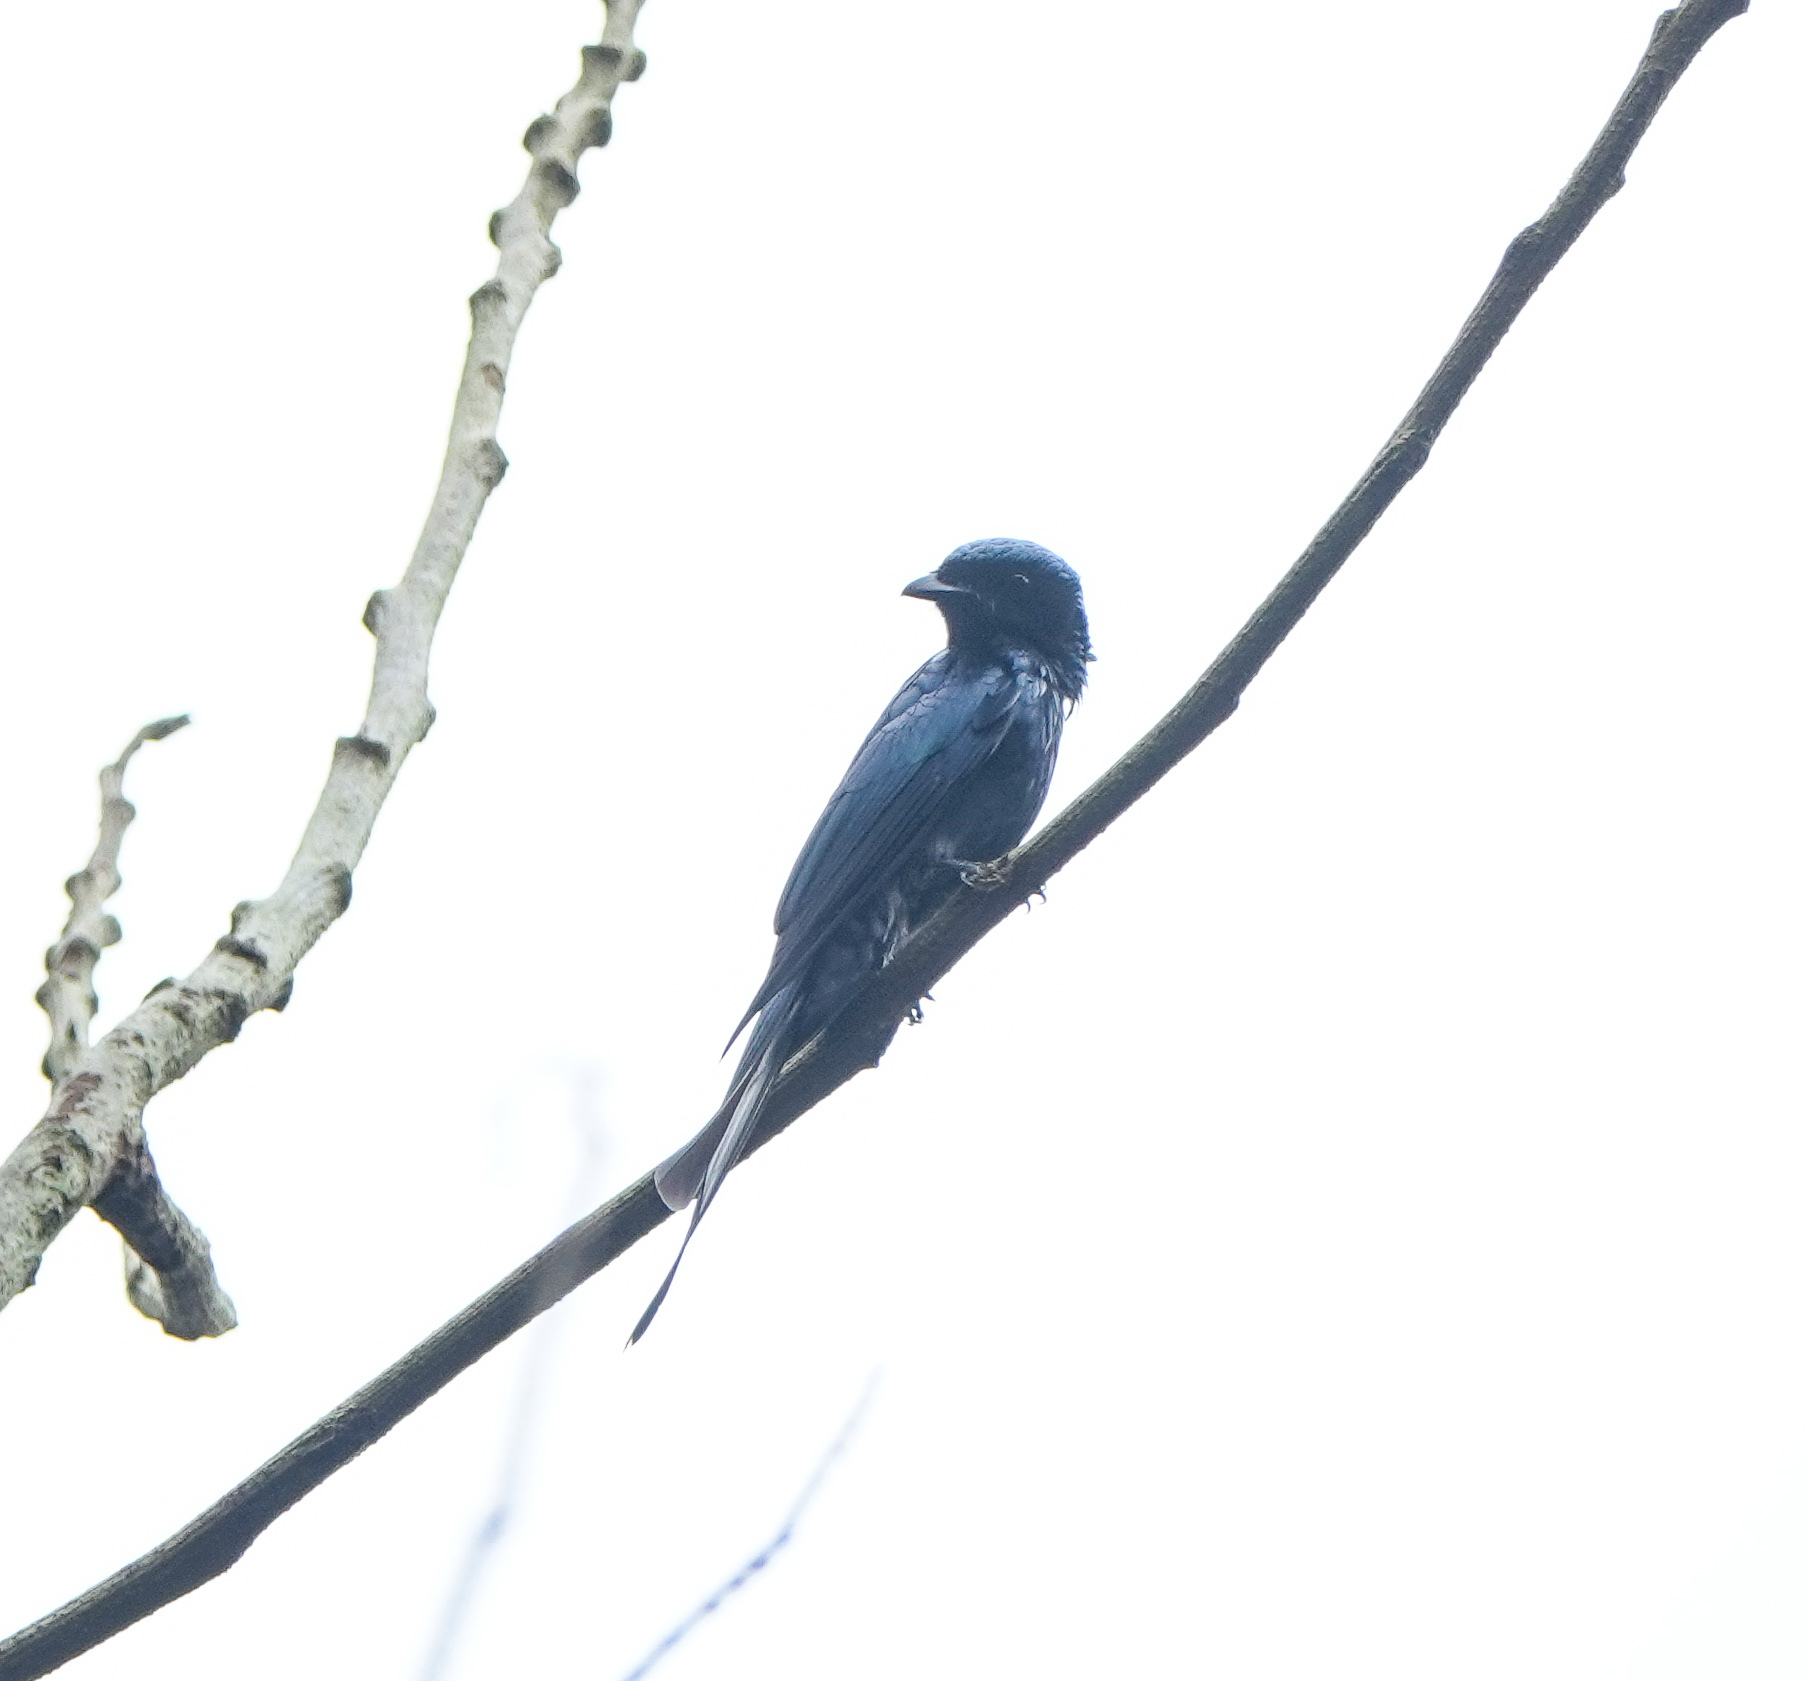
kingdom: Animalia
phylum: Chordata
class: Aves
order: Passeriformes
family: Dicruridae
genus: Dicrurus
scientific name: Dicrurus aeneus
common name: Bronzed drongo
